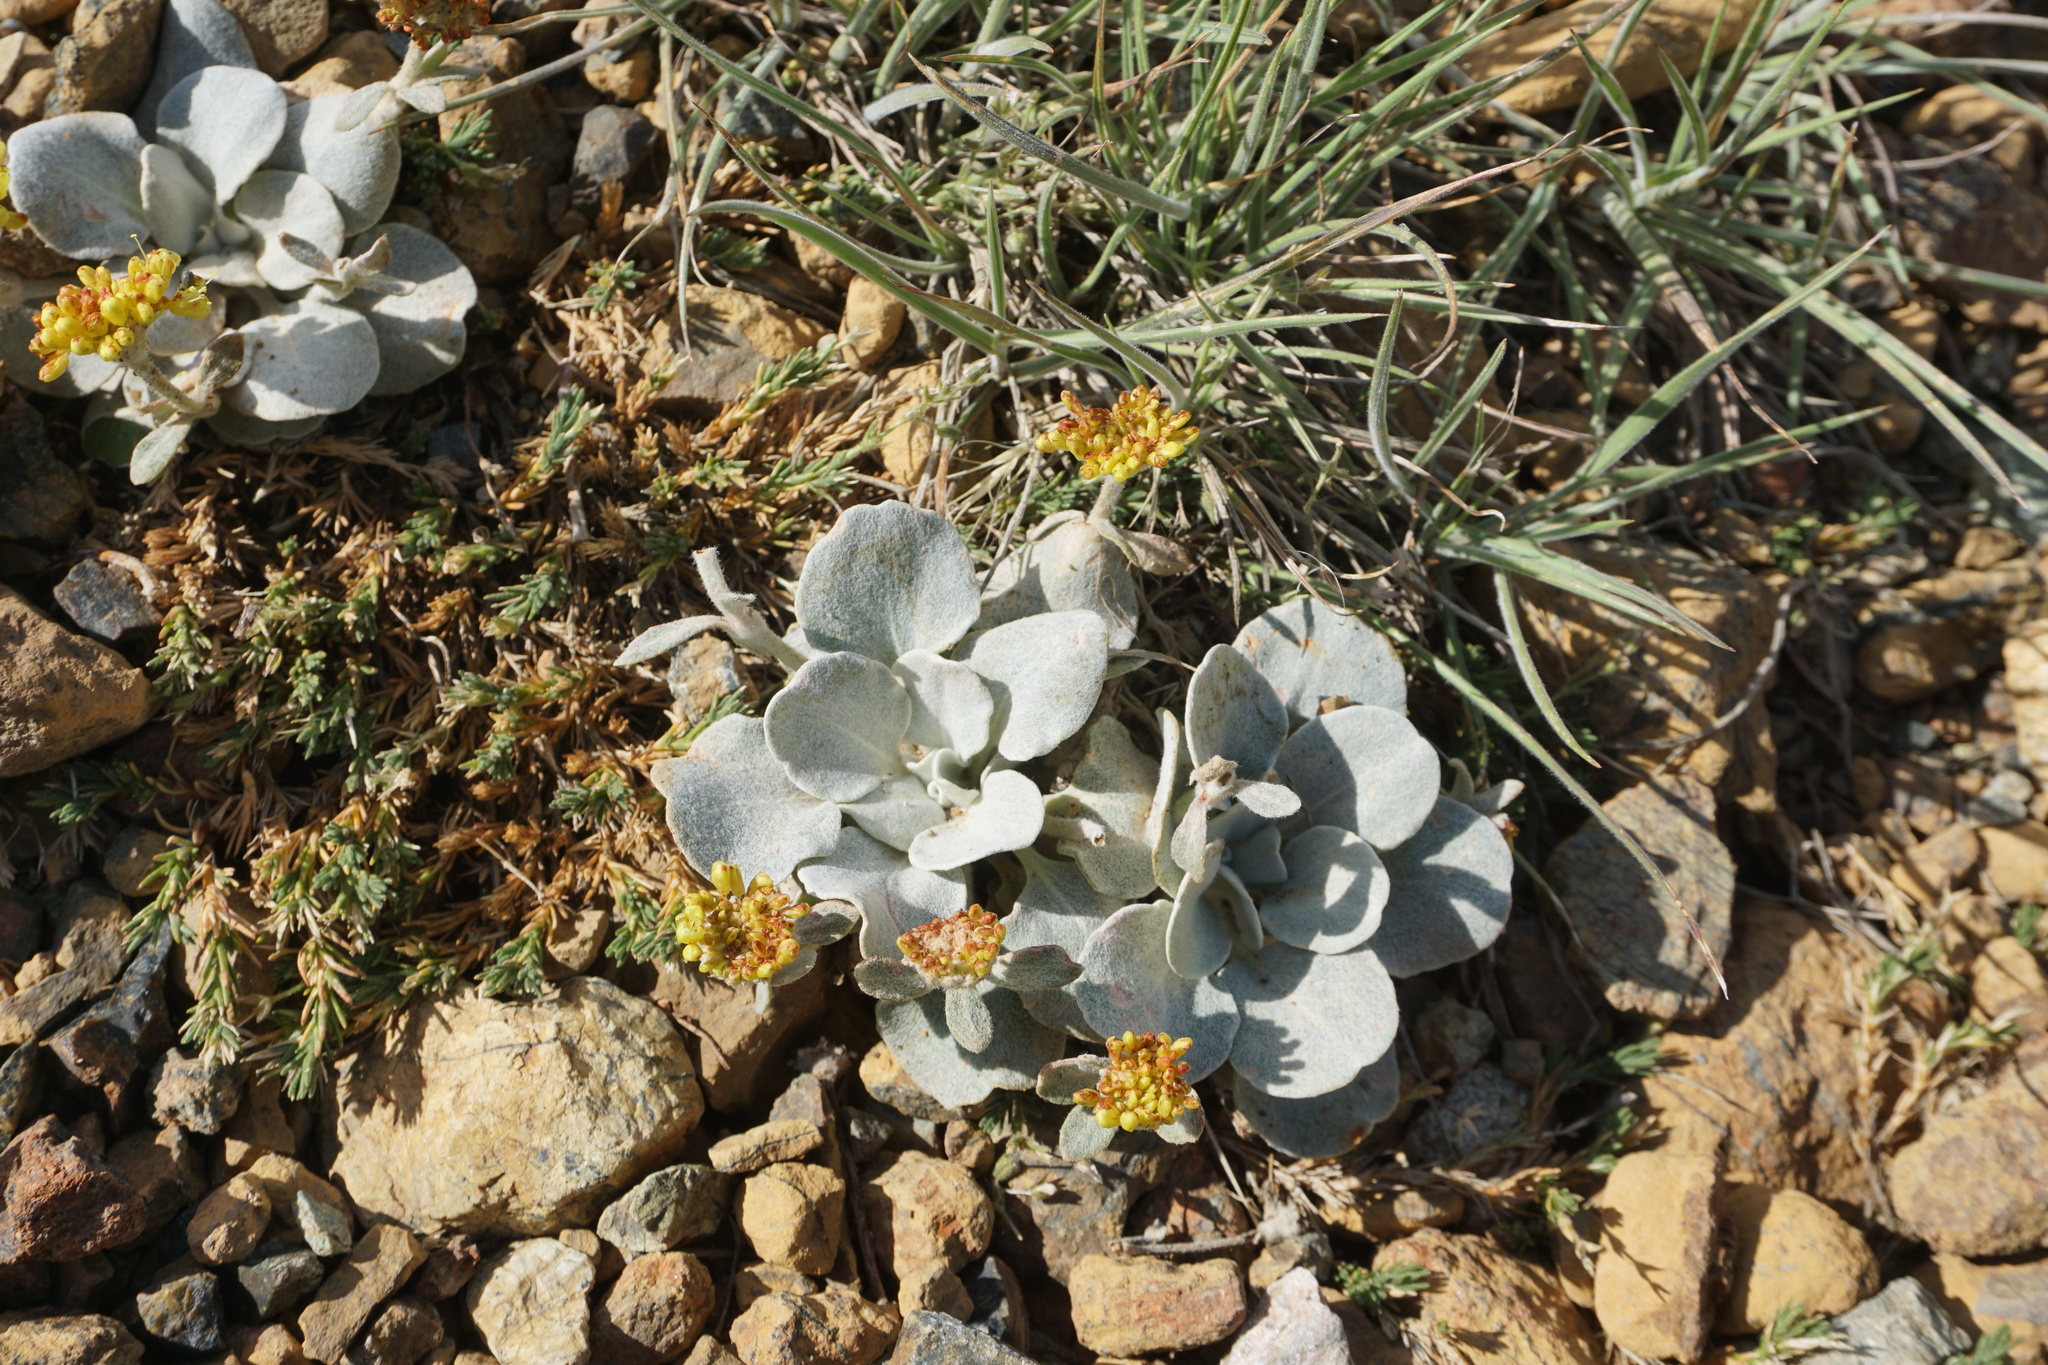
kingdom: Plantae
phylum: Tracheophyta
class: Magnoliopsida
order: Caryophyllales
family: Polygonaceae
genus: Eriogonum
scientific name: Eriogonum alpinum
